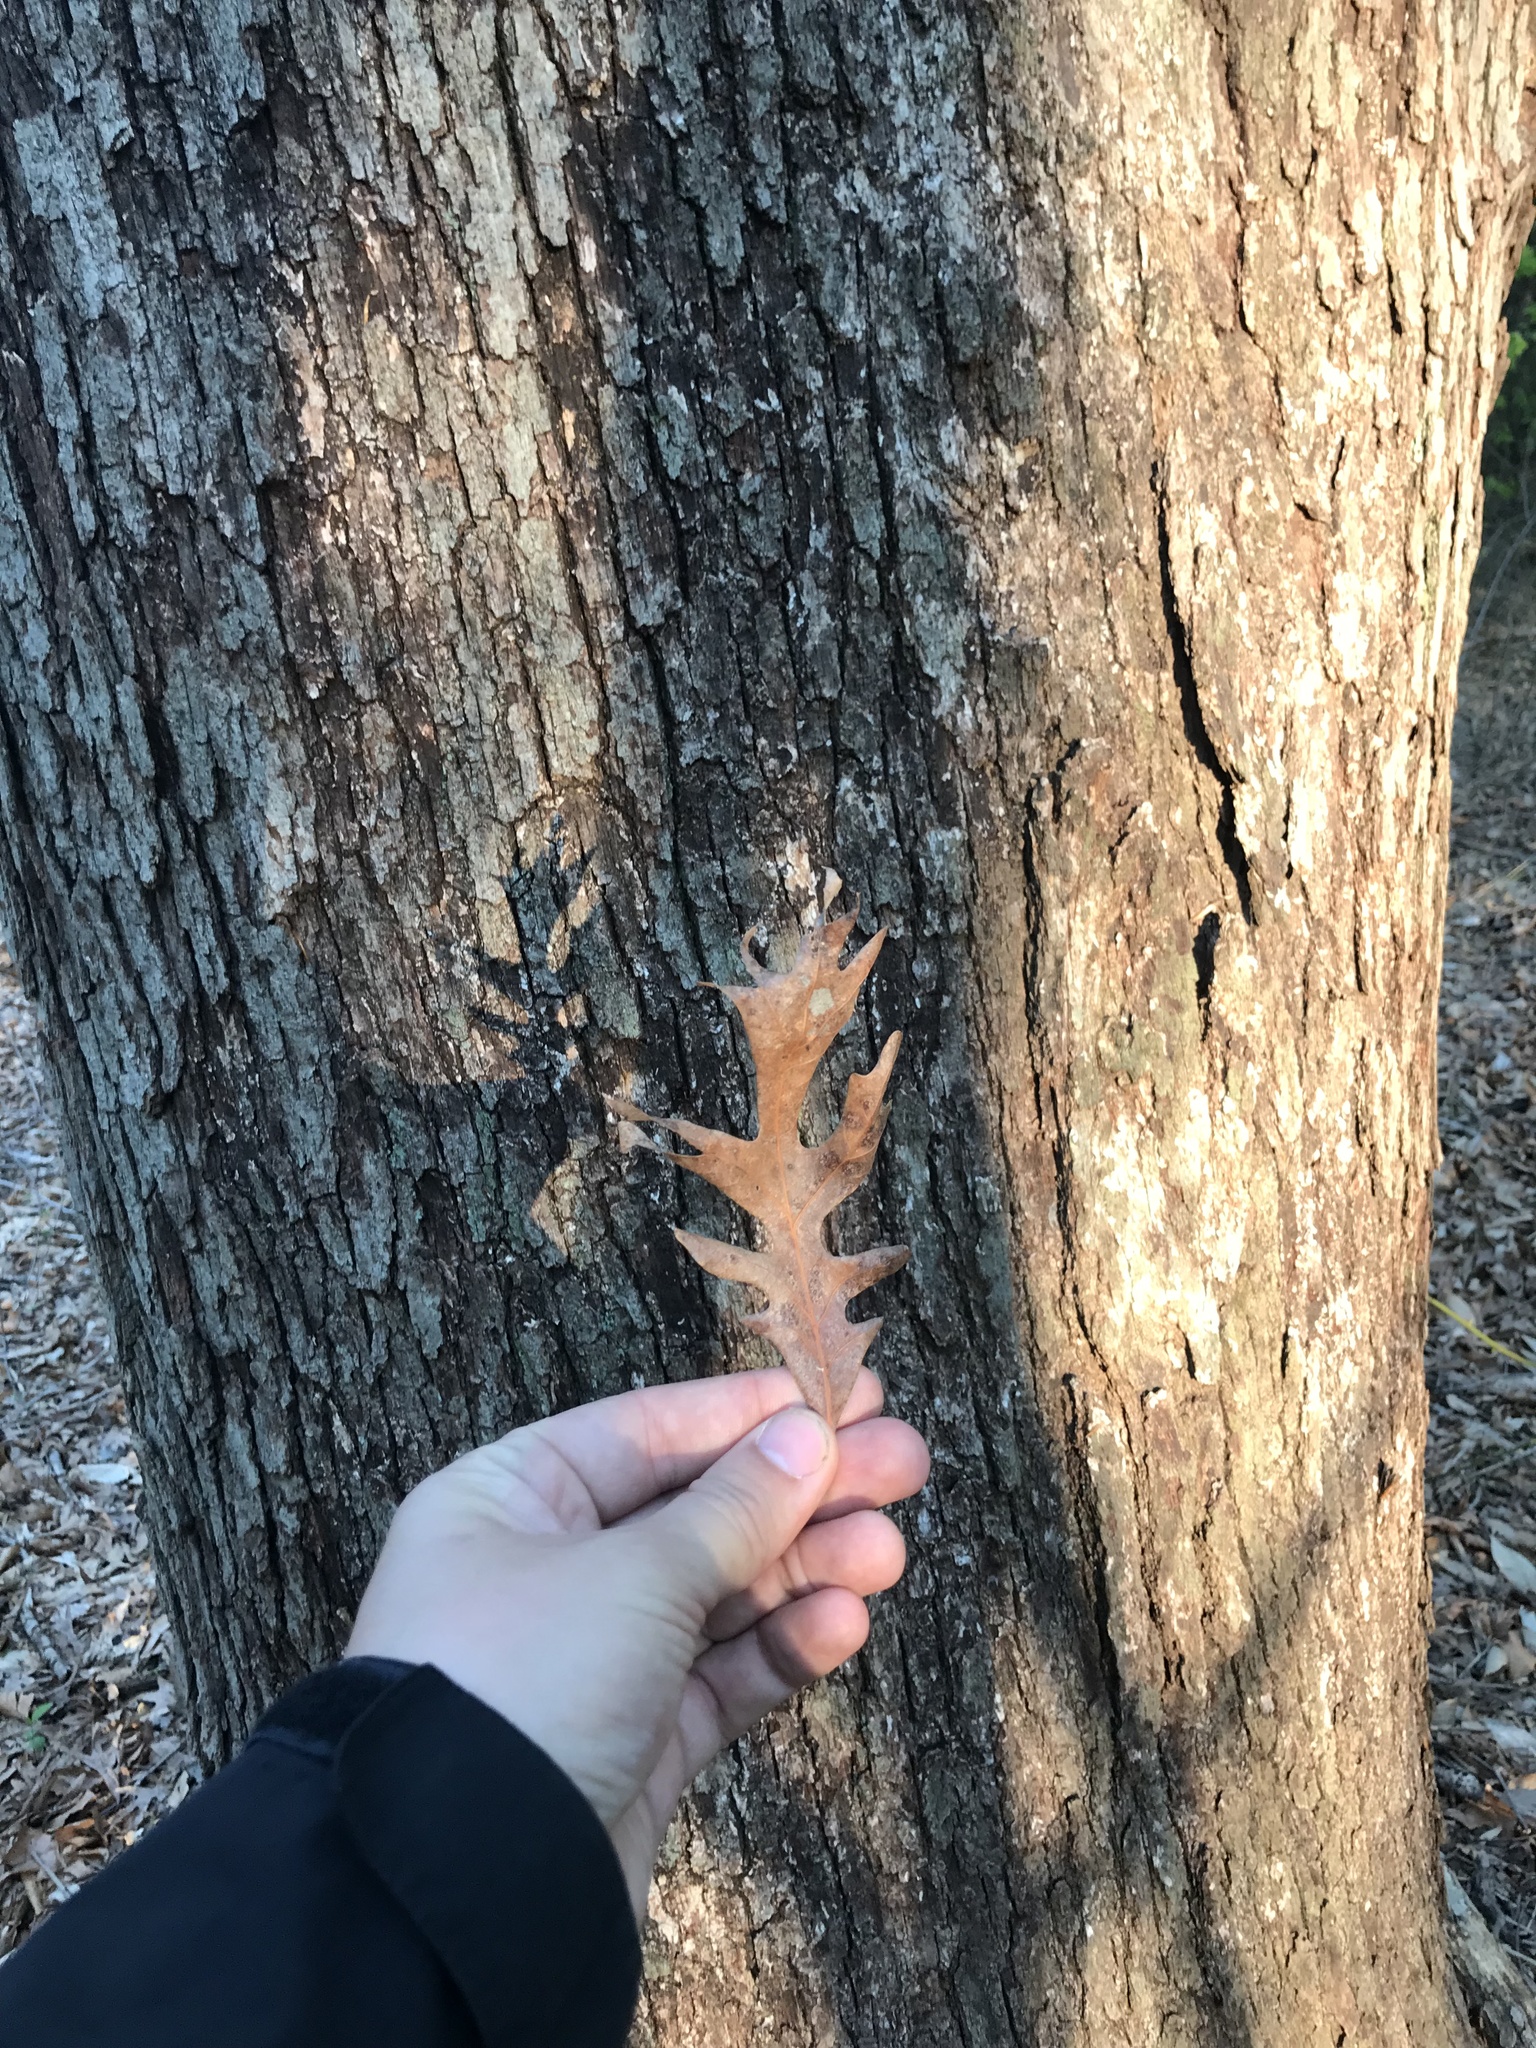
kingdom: Plantae
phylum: Tracheophyta
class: Magnoliopsida
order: Fagales
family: Fagaceae
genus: Quercus
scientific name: Quercus alba
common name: White oak
